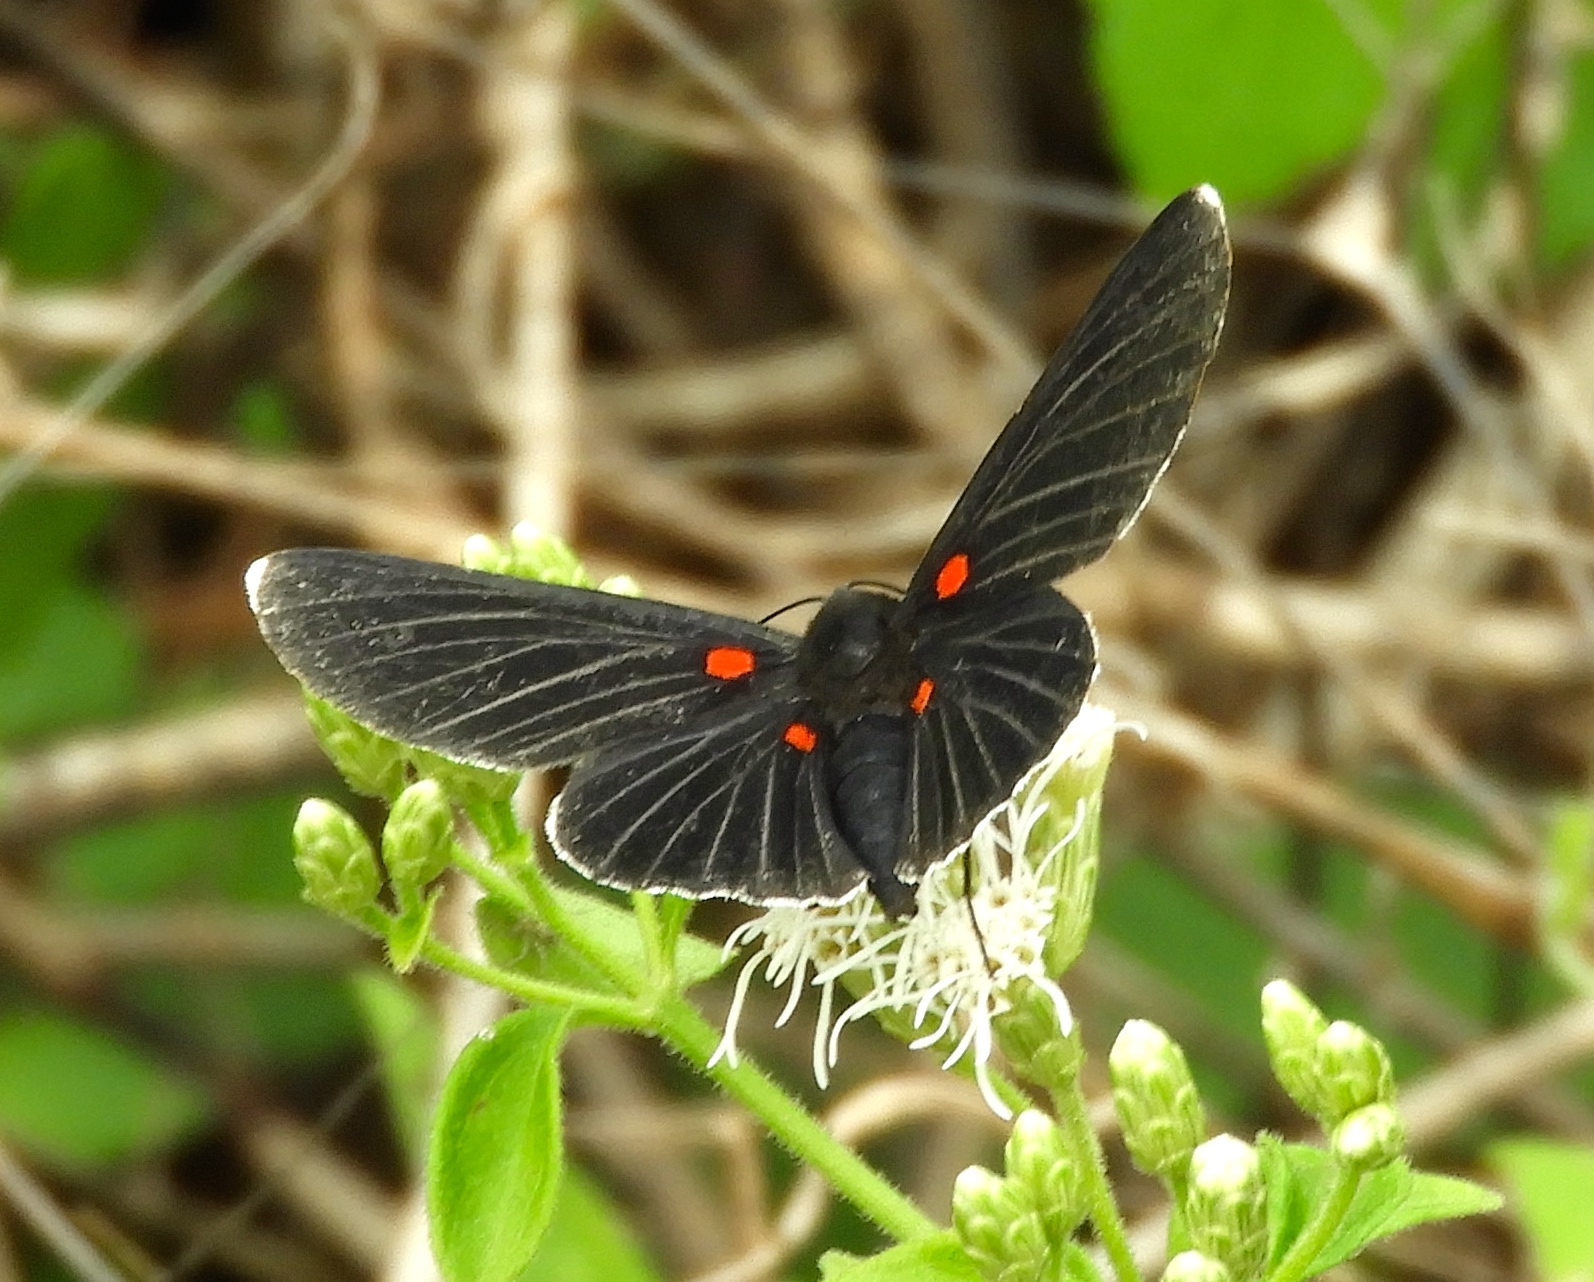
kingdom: Animalia
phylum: Arthropoda
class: Insecta
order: Lepidoptera
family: Lycaenidae
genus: Melanis
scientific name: Melanis
